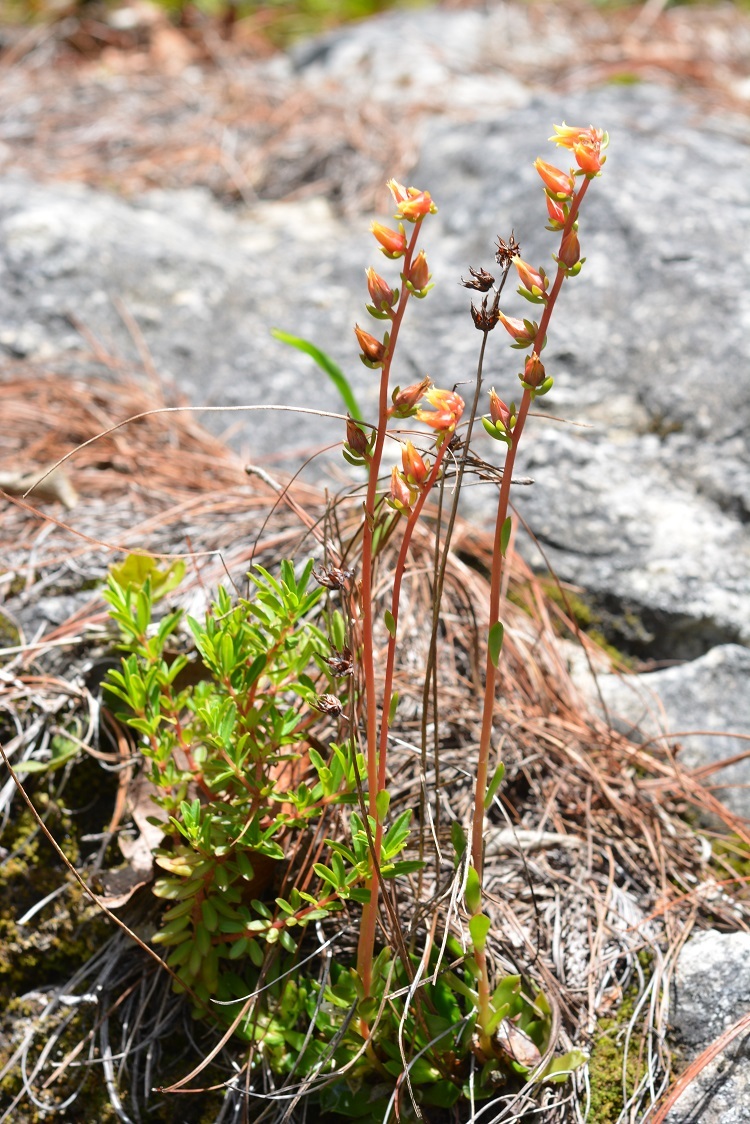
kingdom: Plantae
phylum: Tracheophyta
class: Magnoliopsida
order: Saxifragales
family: Crassulaceae
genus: Echeveria
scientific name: Echeveria bella
